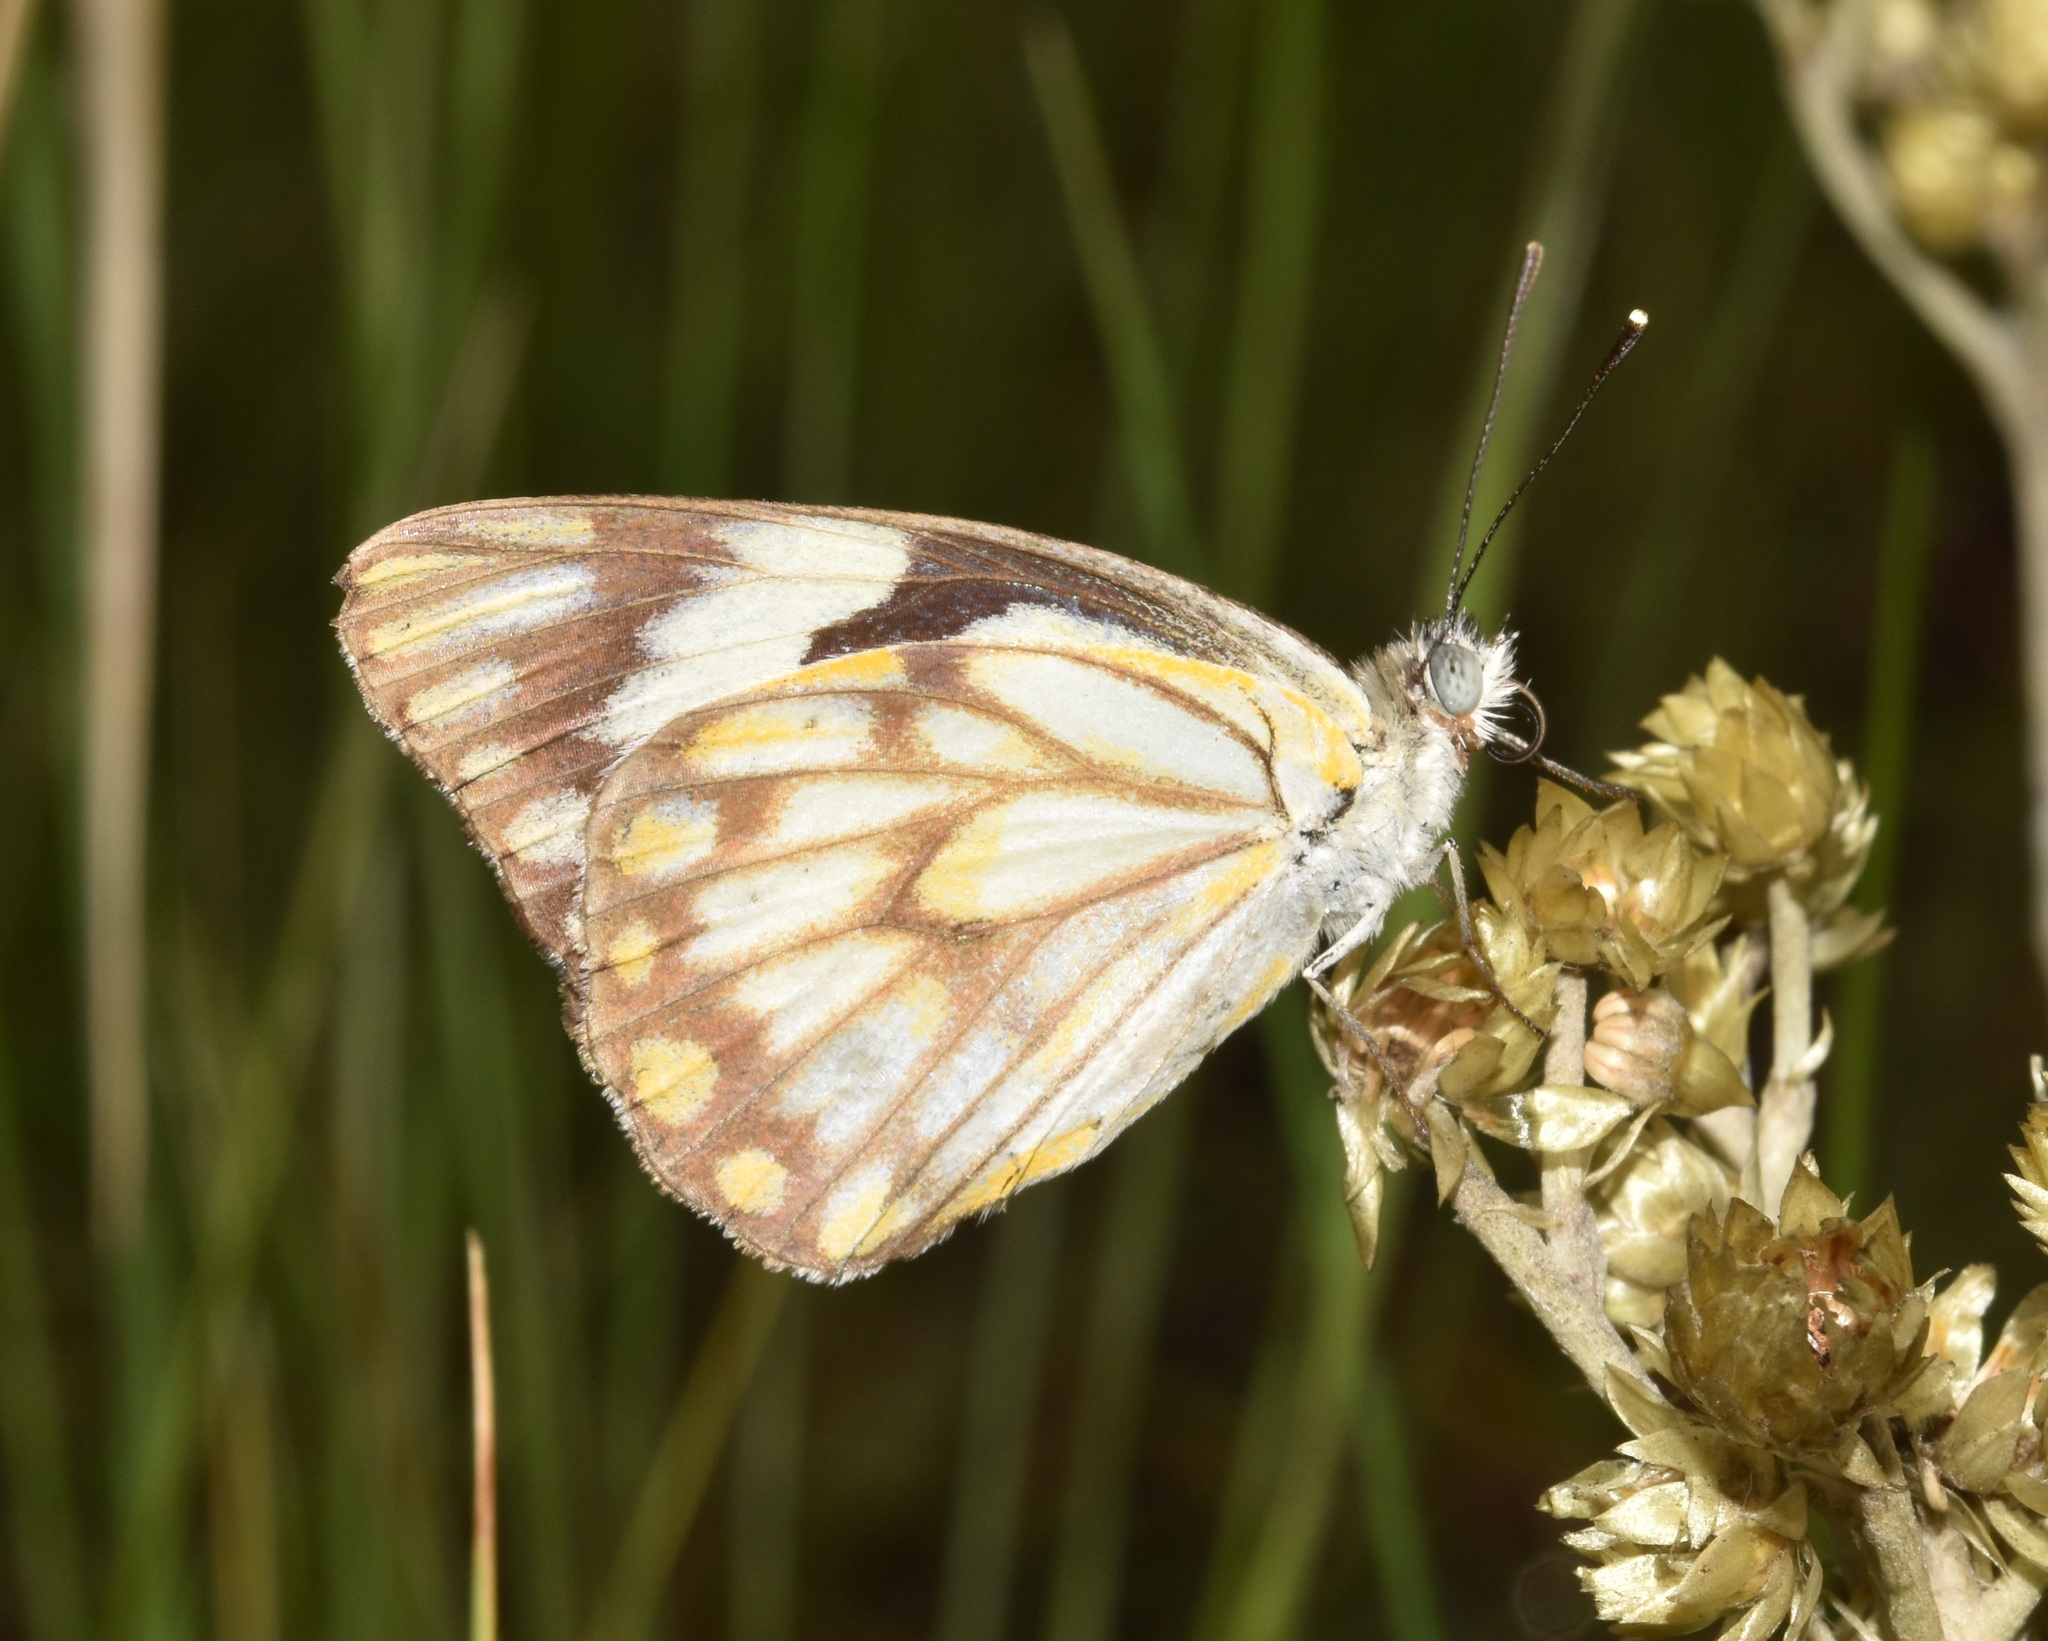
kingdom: Animalia
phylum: Arthropoda
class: Insecta
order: Lepidoptera
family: Pieridae
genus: Belenois
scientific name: Belenois aurota
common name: Brown-veined white
